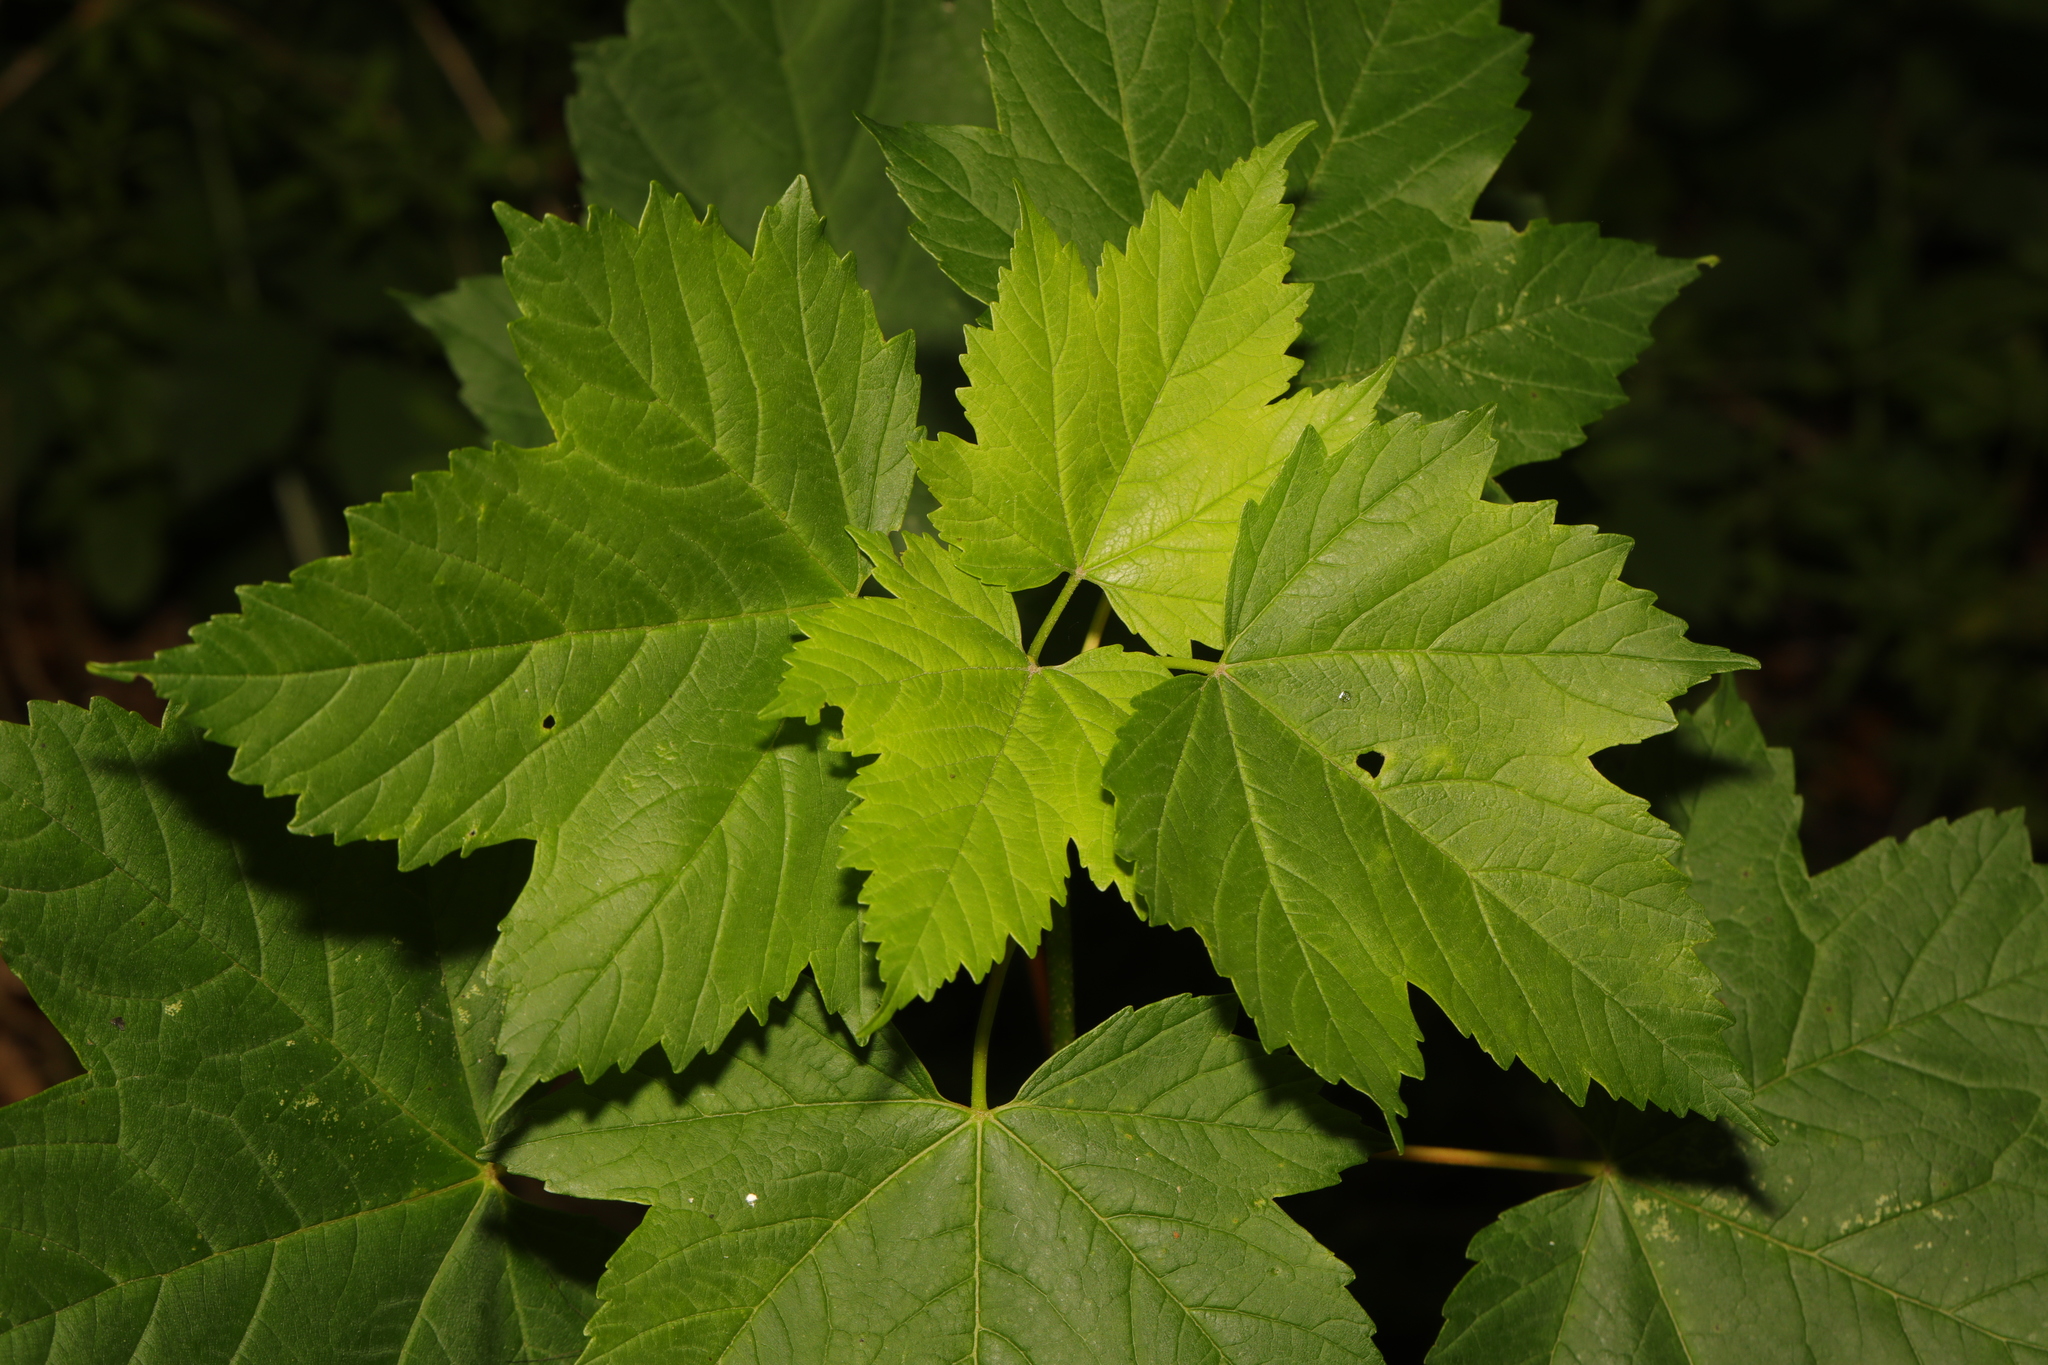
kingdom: Plantae
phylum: Tracheophyta
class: Magnoliopsida
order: Sapindales
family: Sapindaceae
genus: Acer
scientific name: Acer pseudoplatanus
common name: Sycamore
